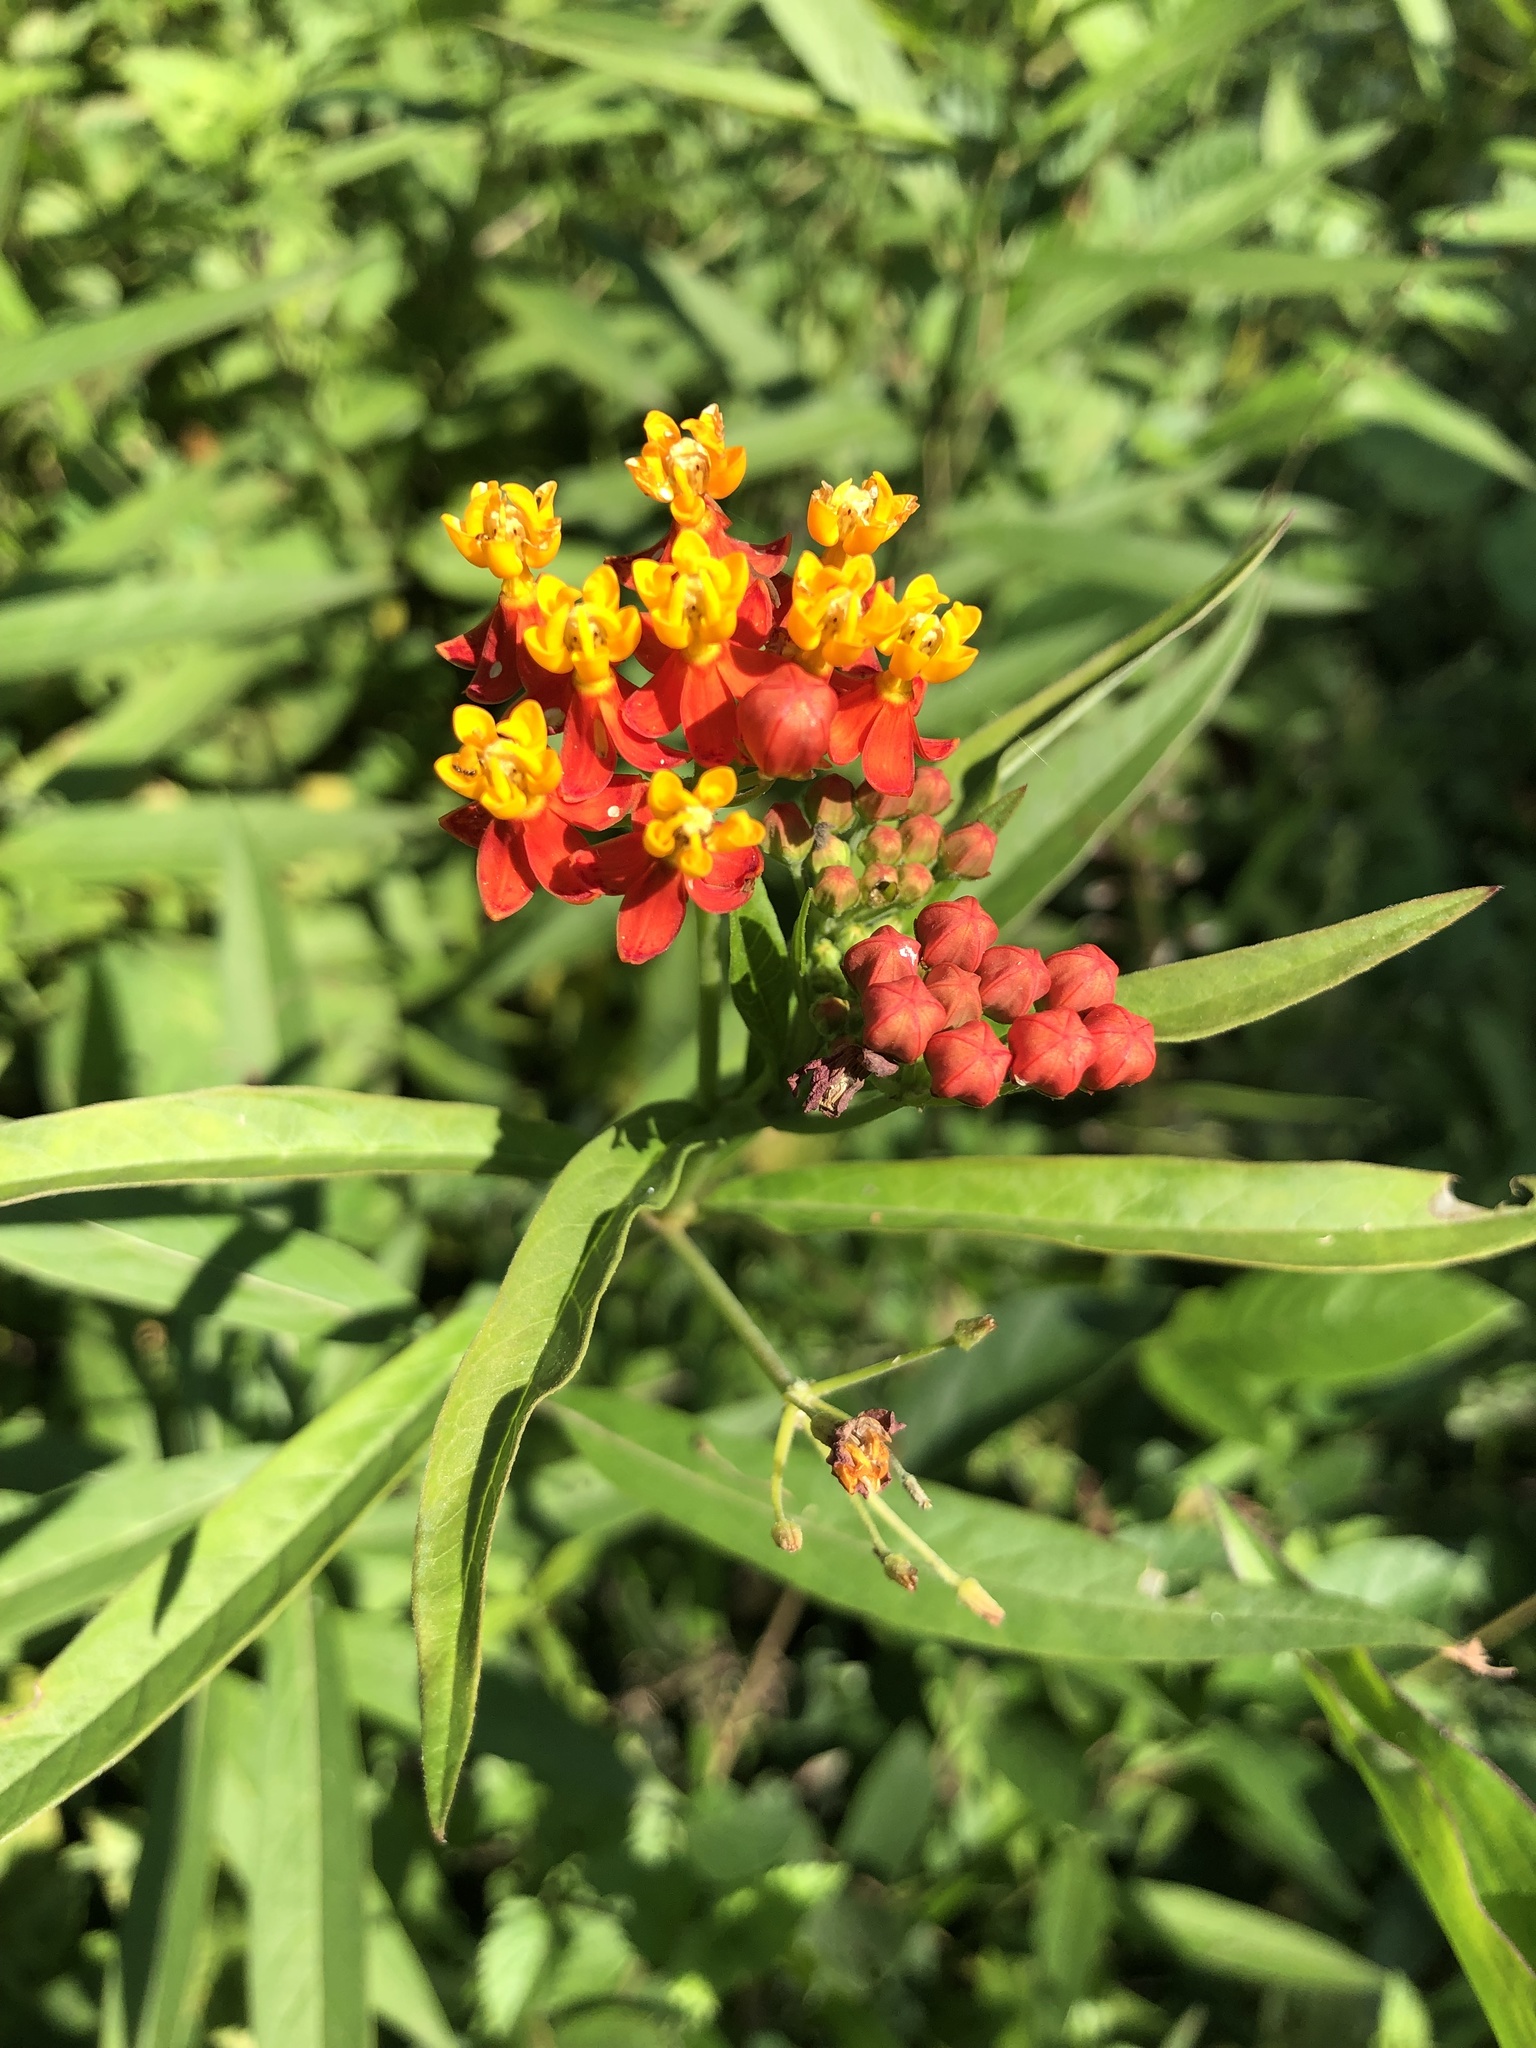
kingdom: Plantae
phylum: Tracheophyta
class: Magnoliopsida
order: Gentianales
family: Apocynaceae
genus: Asclepias
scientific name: Asclepias curassavica
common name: Bloodflower
